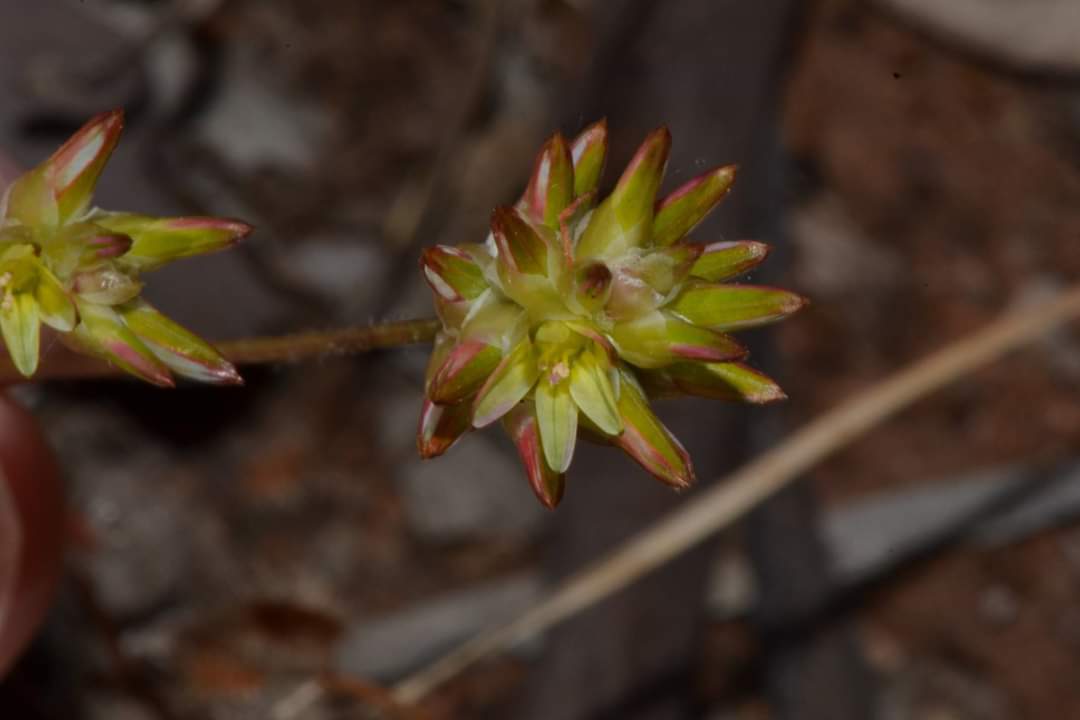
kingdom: Plantae
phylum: Tracheophyta
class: Magnoliopsida
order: Caryophyllales
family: Amaranthaceae
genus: Ptilotus
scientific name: Ptilotus eremita
